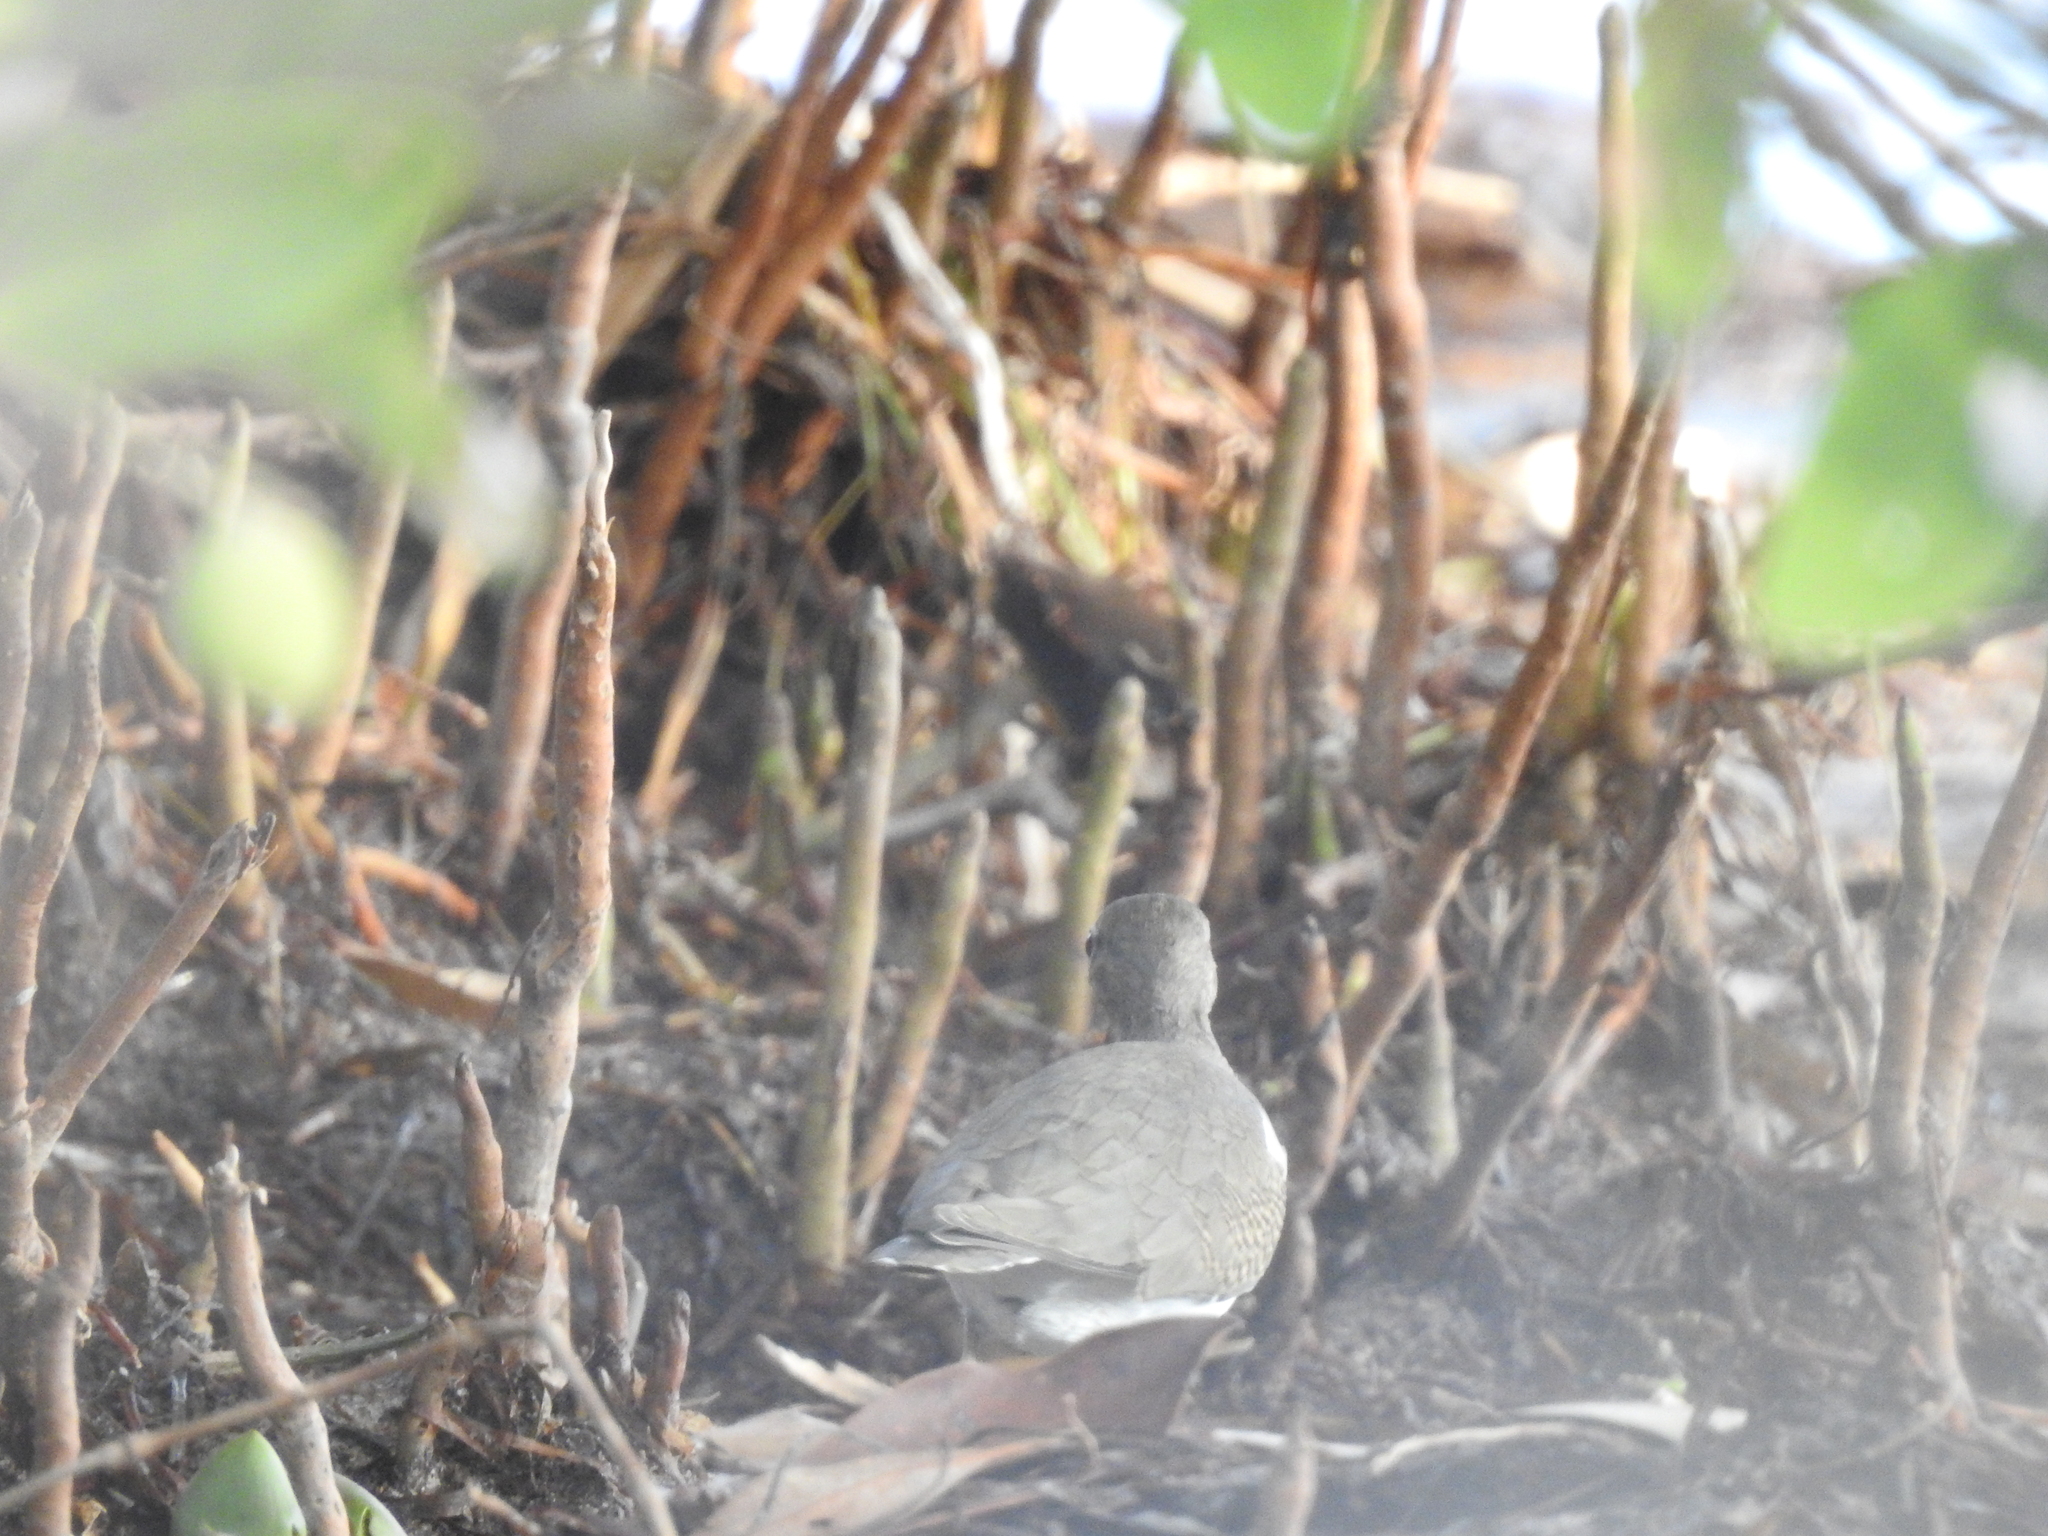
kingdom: Animalia
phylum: Chordata
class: Aves
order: Charadriiformes
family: Scolopacidae
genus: Actitis
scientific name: Actitis macularius
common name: Spotted sandpiper
